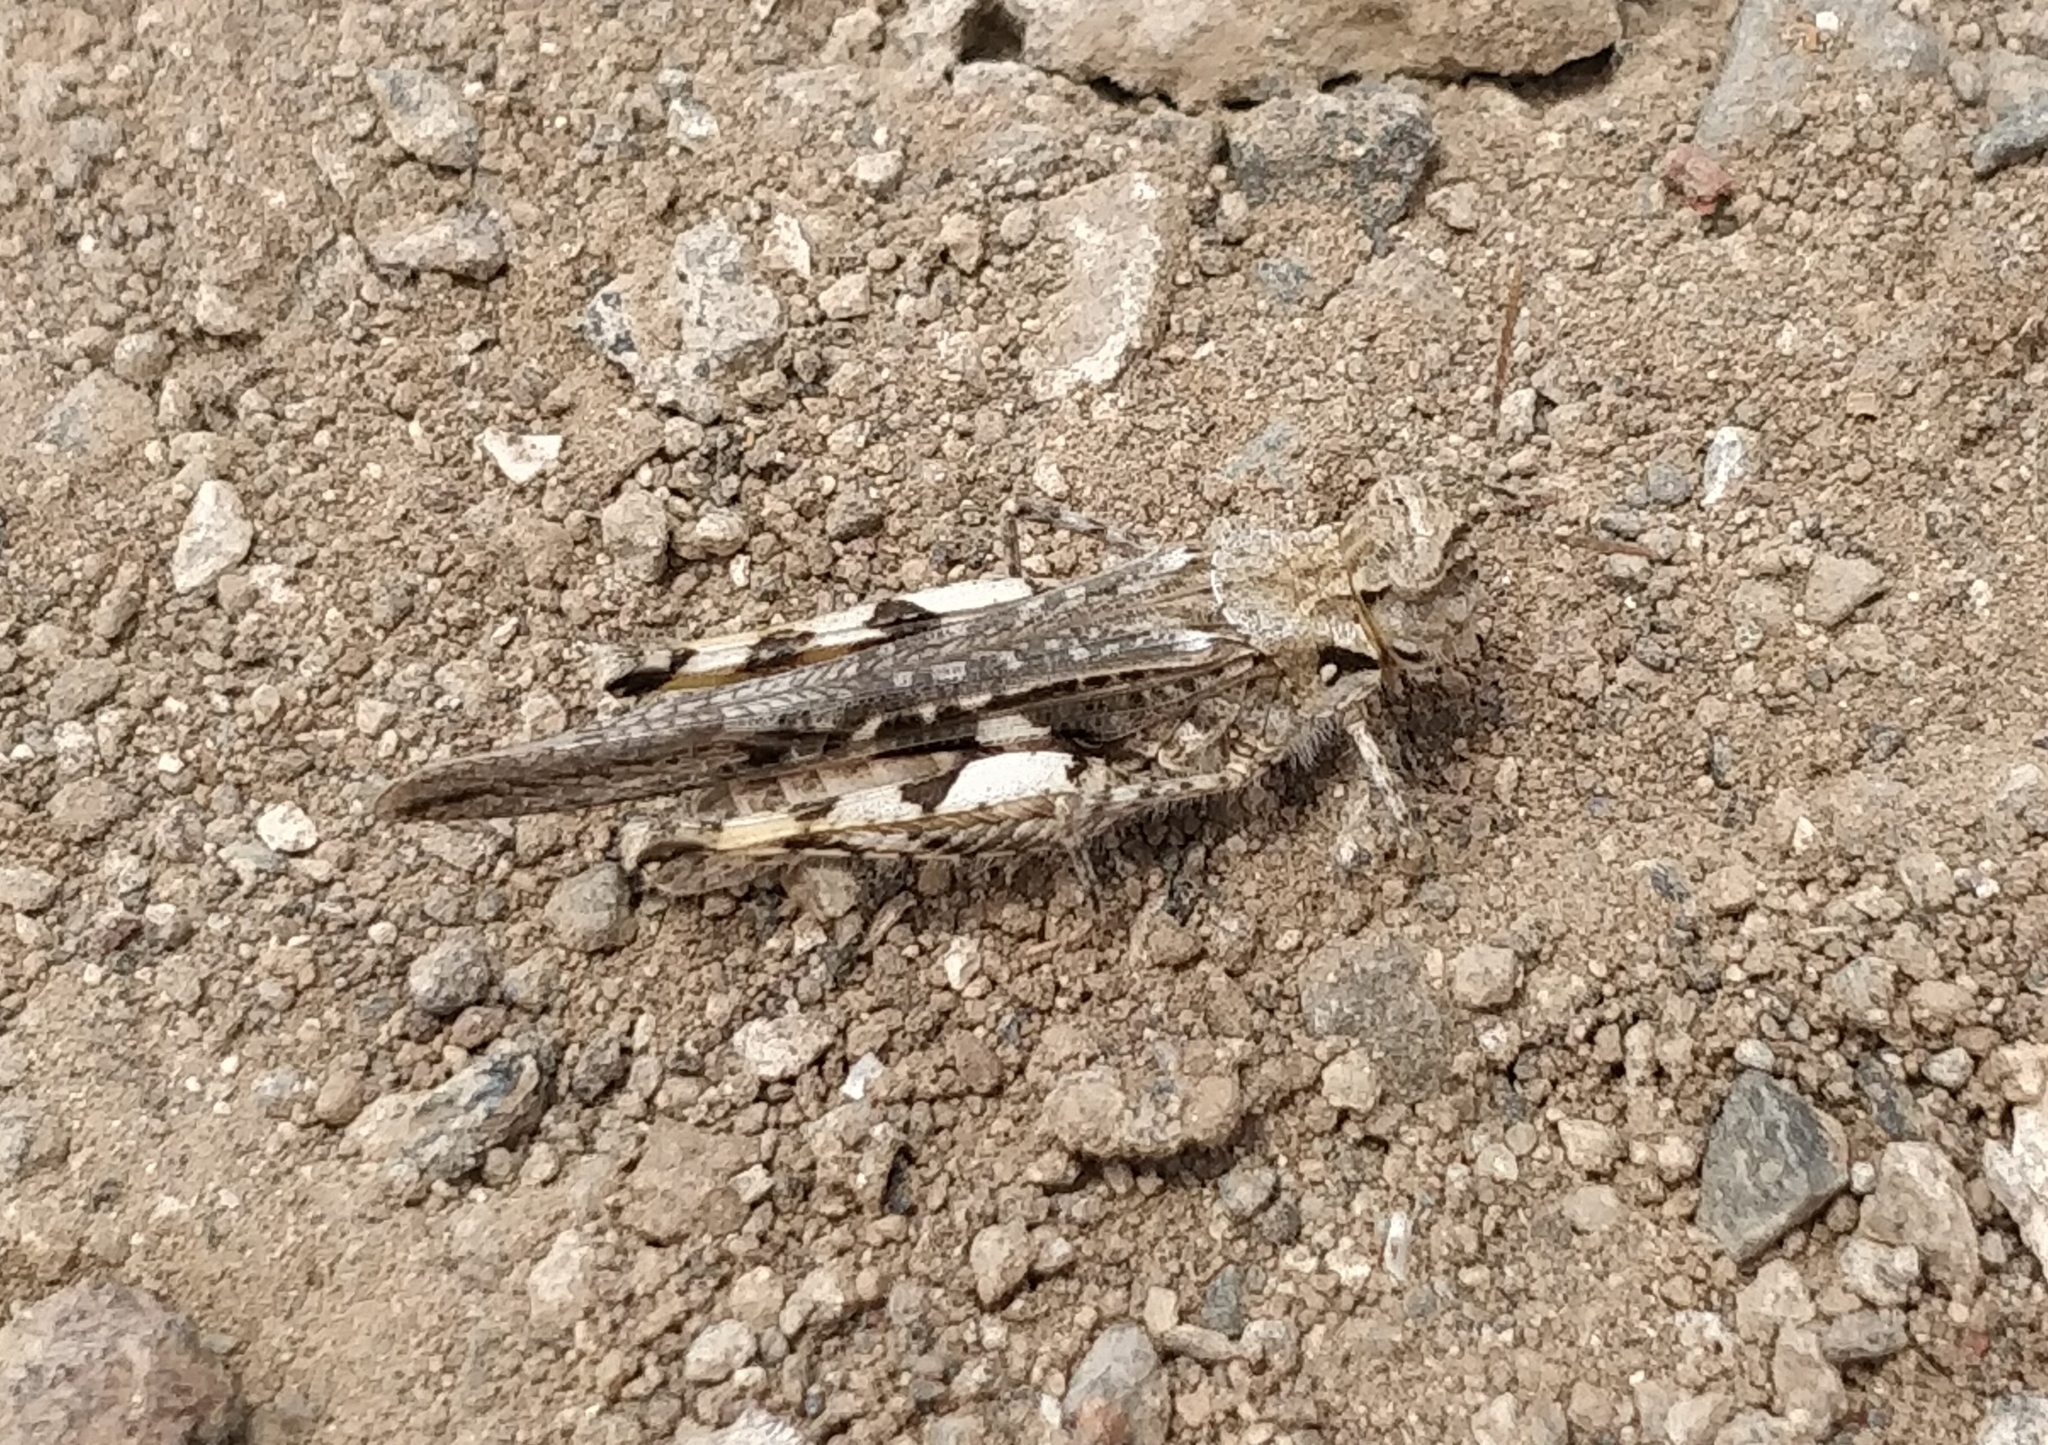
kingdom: Animalia
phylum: Arthropoda
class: Insecta
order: Orthoptera
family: Acrididae
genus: Acrotylus
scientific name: Acrotylus insubricus
